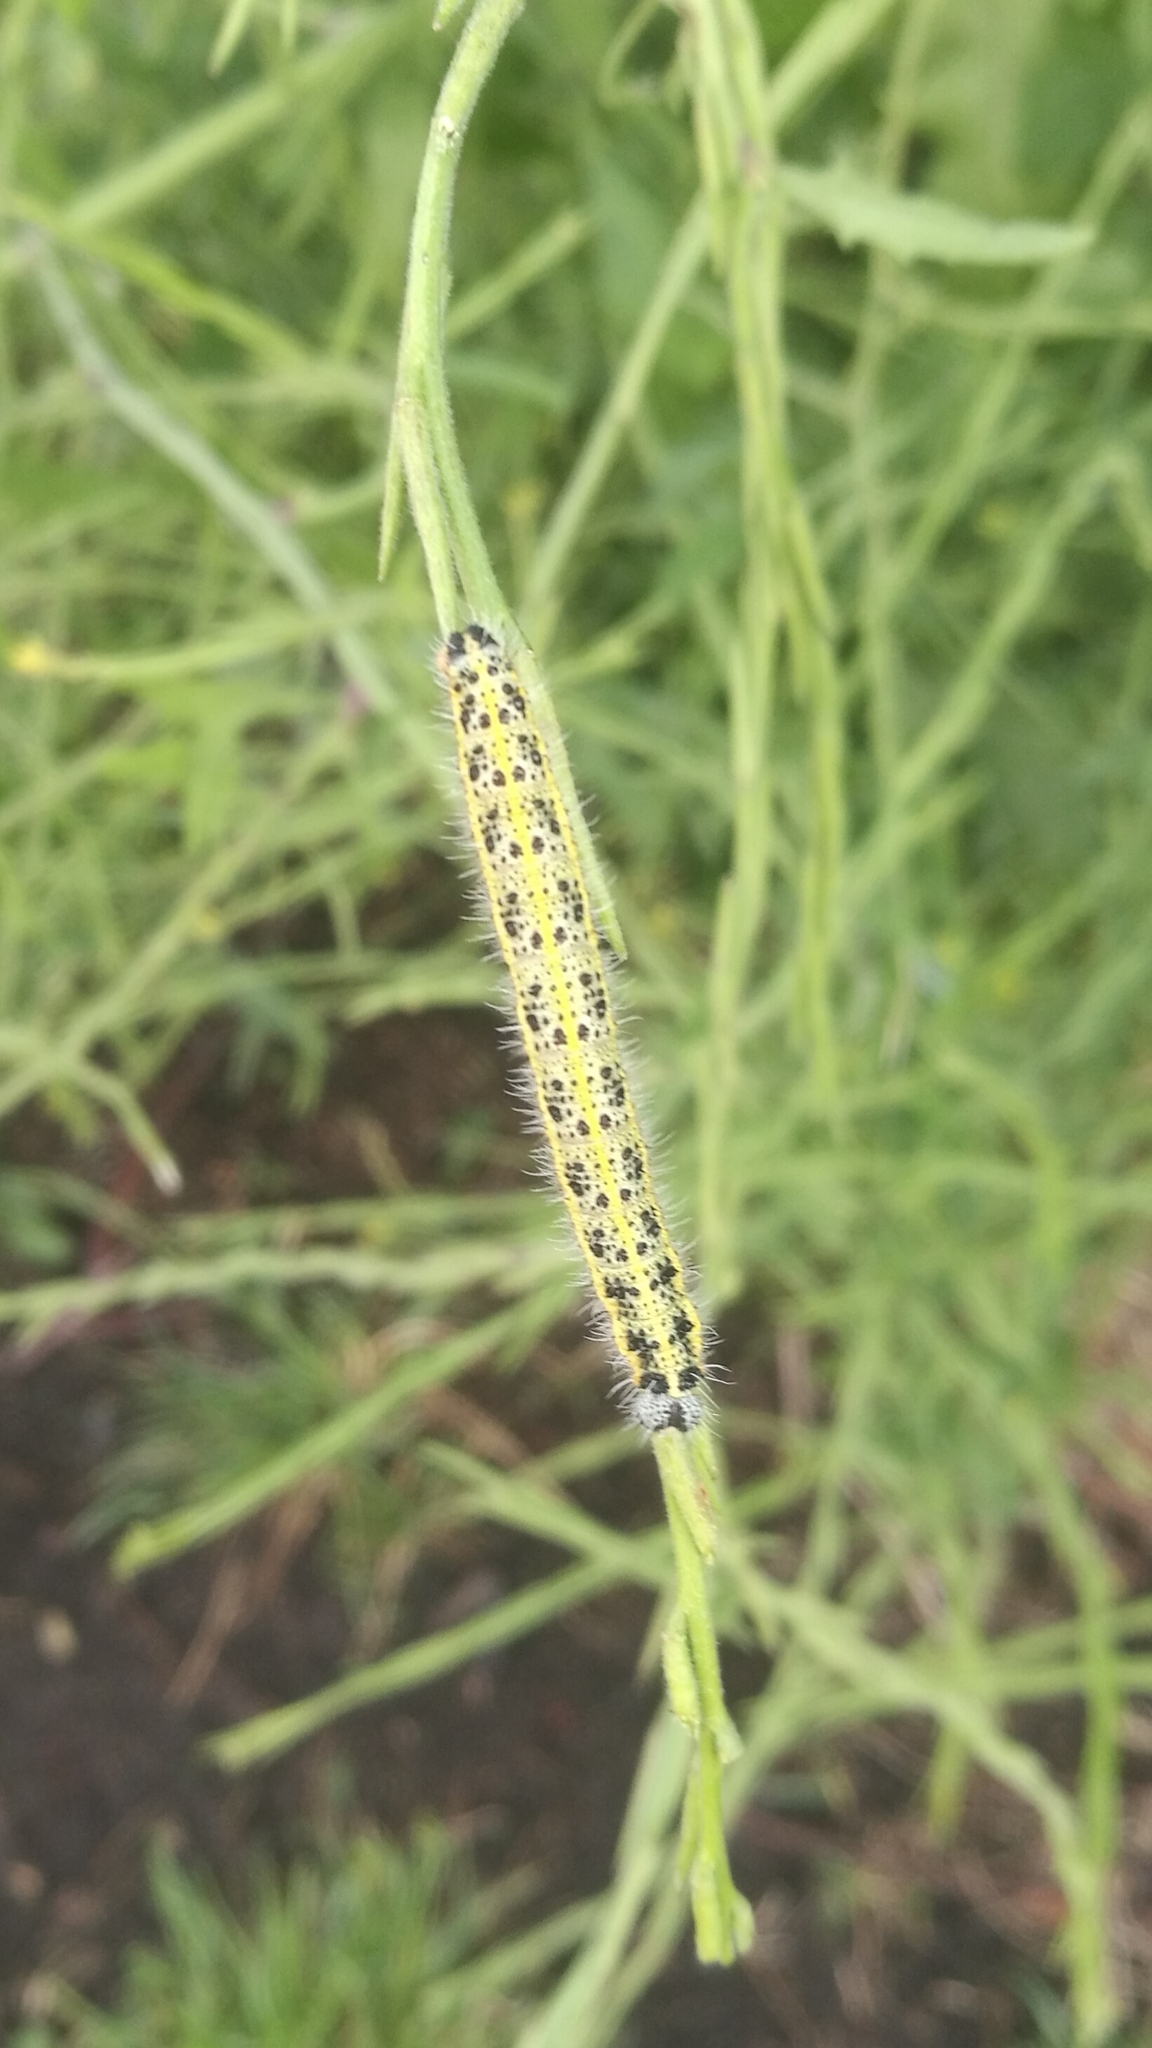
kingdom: Animalia
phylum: Arthropoda
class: Insecta
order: Lepidoptera
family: Pieridae
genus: Pieris
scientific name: Pieris brassicae
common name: Large white
